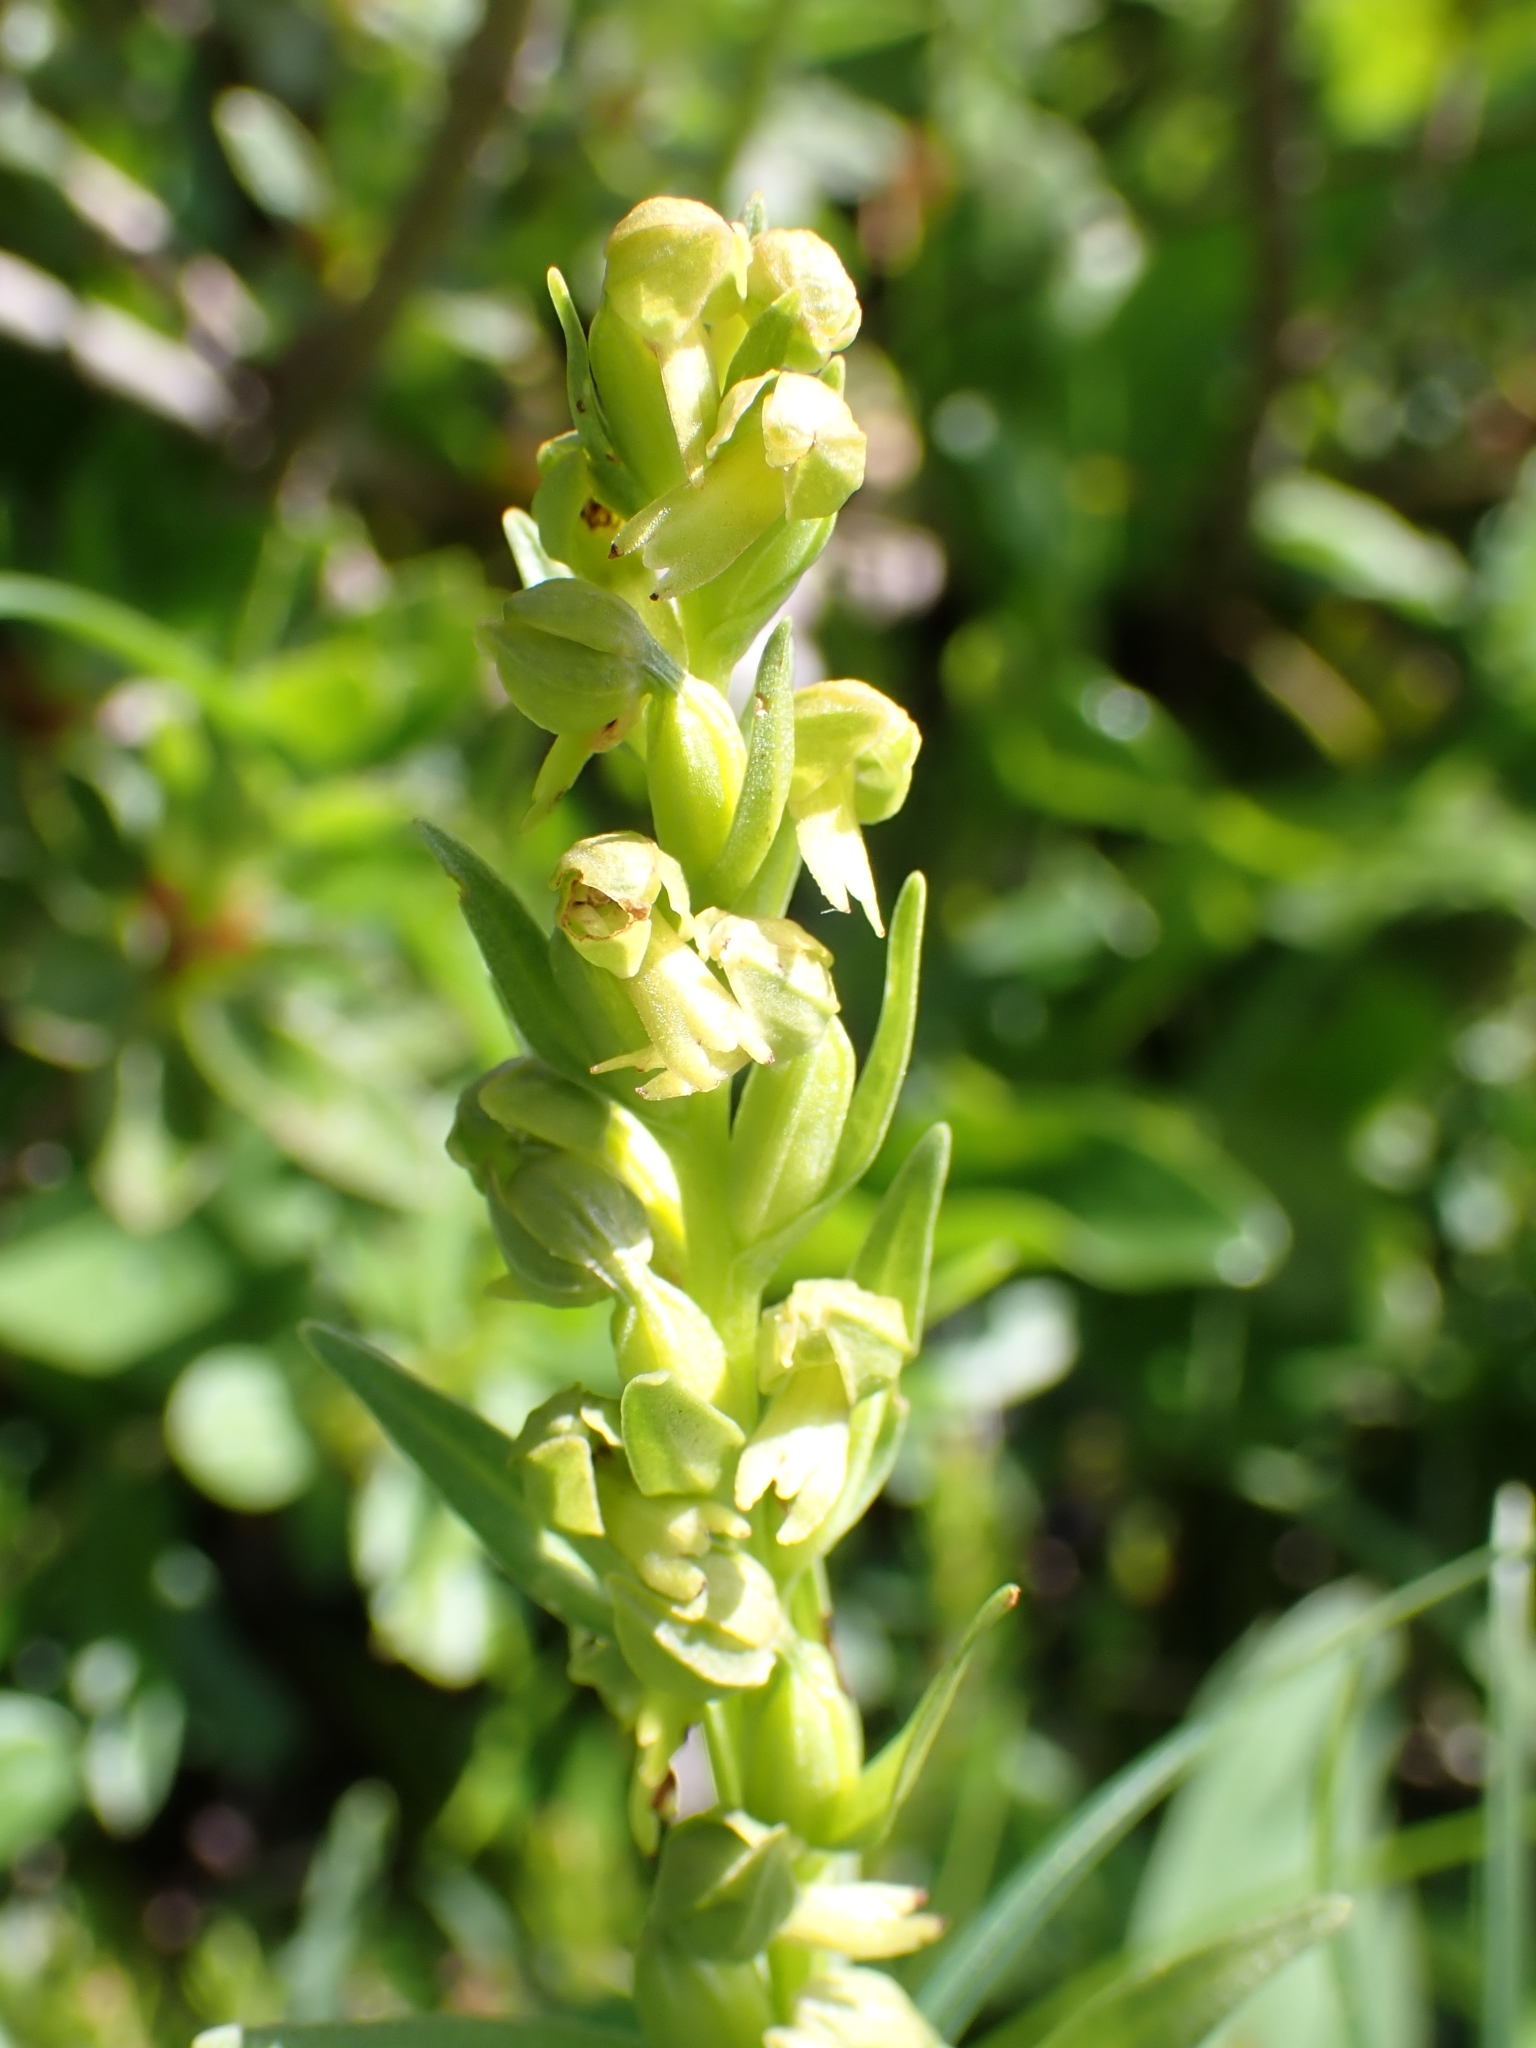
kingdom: Plantae
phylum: Tracheophyta
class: Liliopsida
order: Asparagales
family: Orchidaceae
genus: Dactylorhiza
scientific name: Dactylorhiza viridis
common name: Longbract frog orchid
